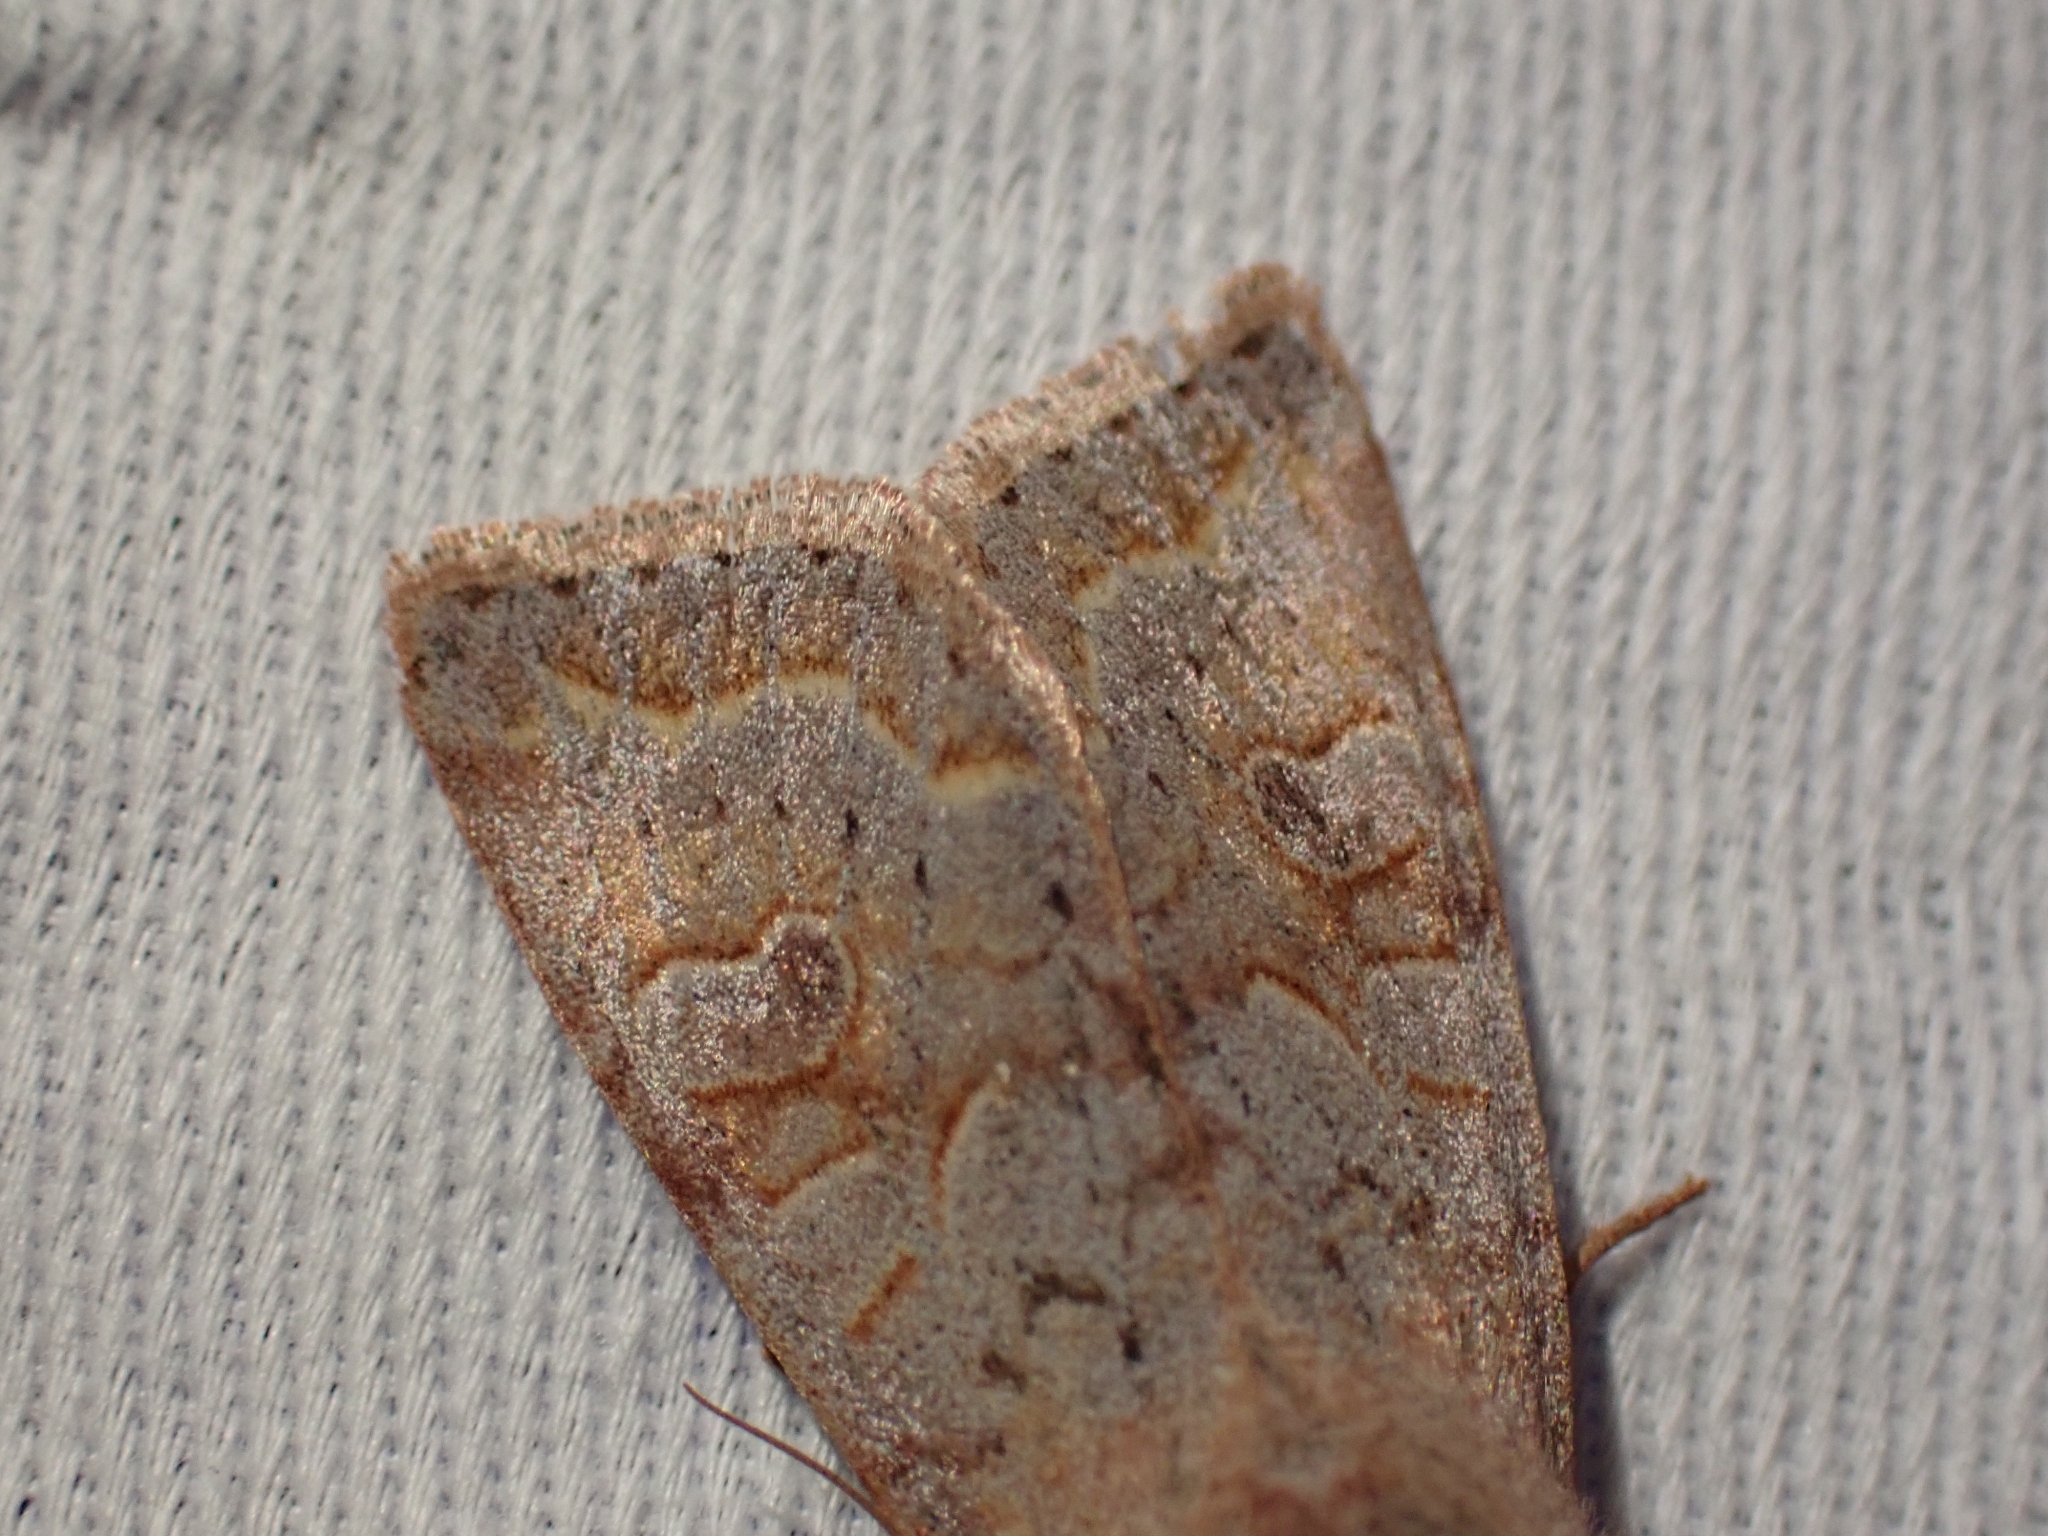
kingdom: Animalia
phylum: Arthropoda
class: Insecta
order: Lepidoptera
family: Noctuidae
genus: Orthosia
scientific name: Orthosia revicta
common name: Rusty whitesided caterpillar
